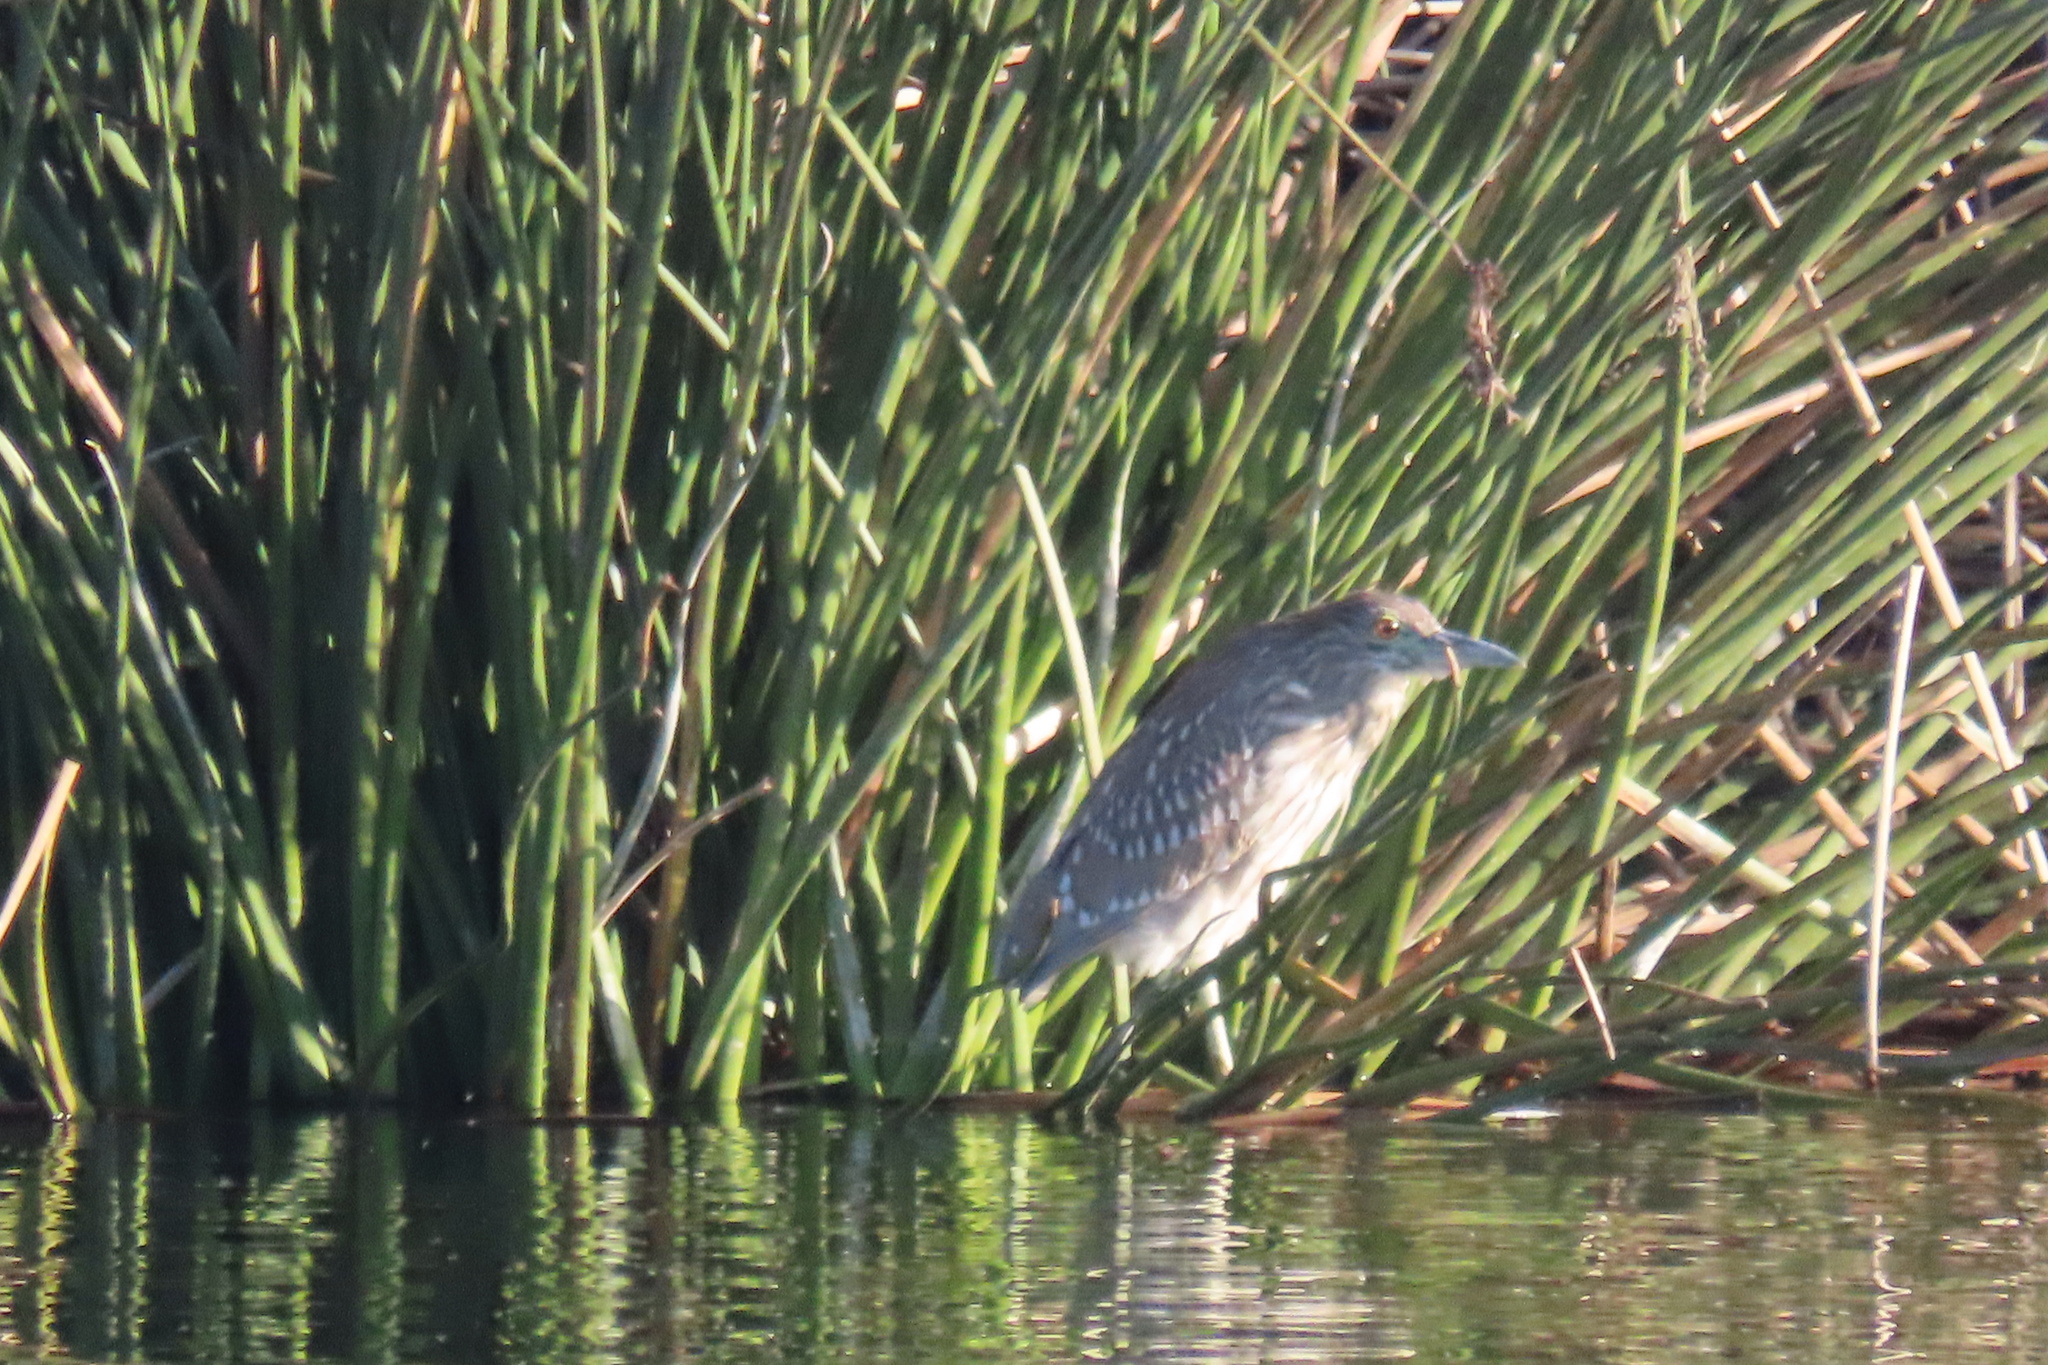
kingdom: Animalia
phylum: Chordata
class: Aves
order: Pelecaniformes
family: Ardeidae
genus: Nycticorax
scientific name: Nycticorax nycticorax
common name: Black-crowned night heron
